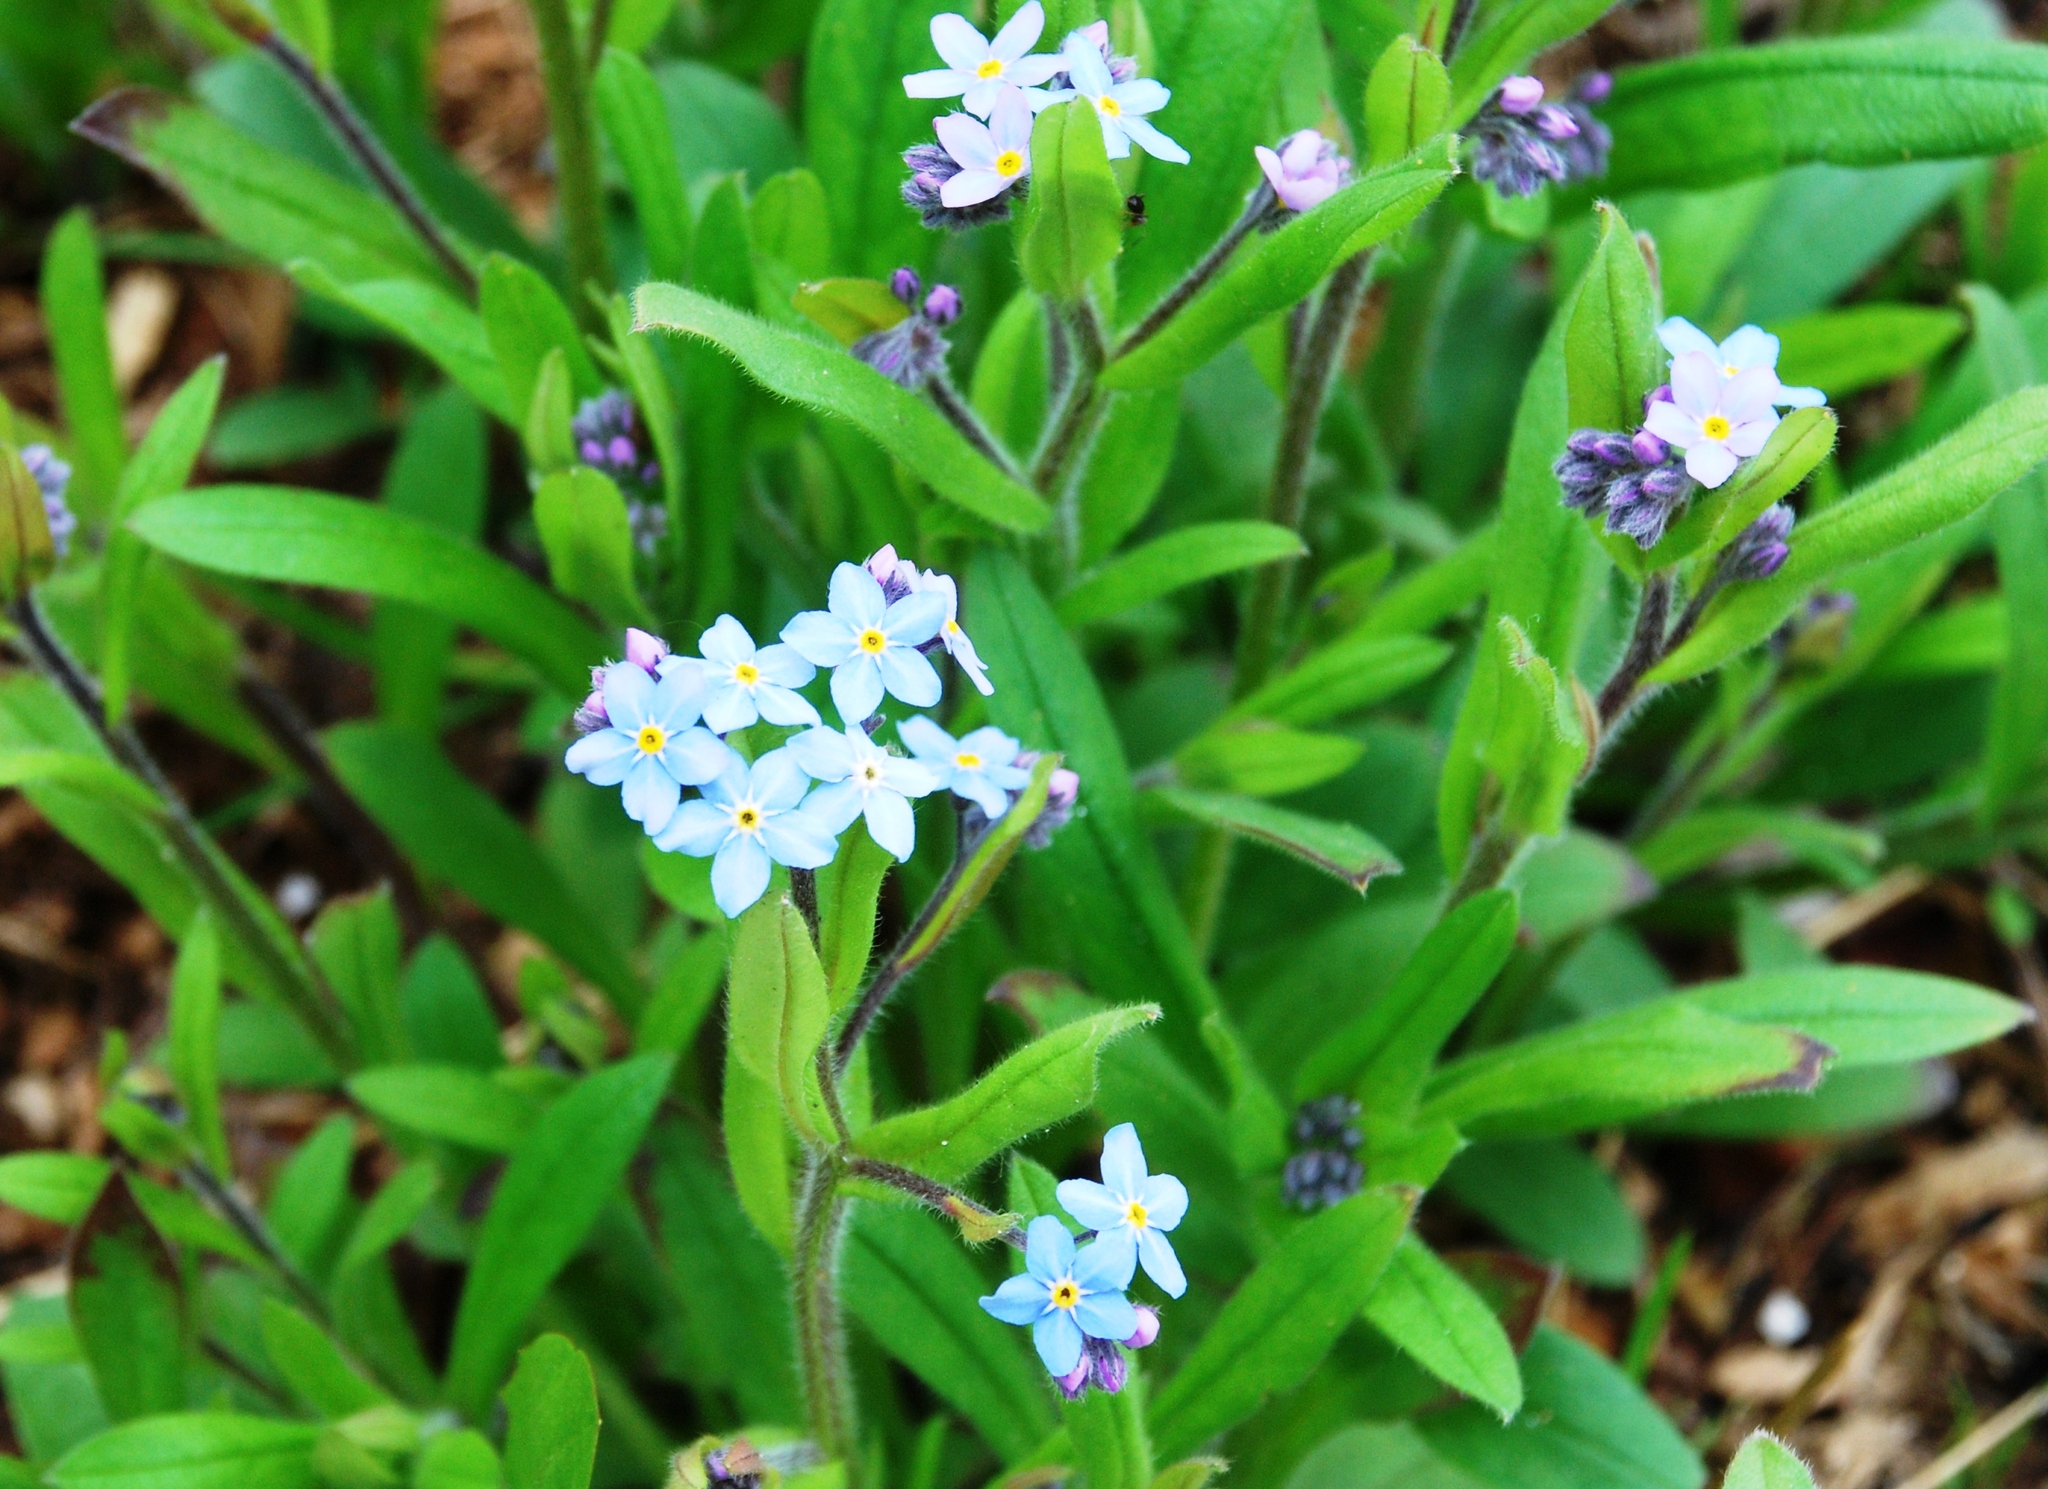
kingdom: Plantae
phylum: Tracheophyta
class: Magnoliopsida
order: Boraginales
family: Boraginaceae
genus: Myosotis
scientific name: Myosotis sylvatica
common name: Wood forget-me-not
